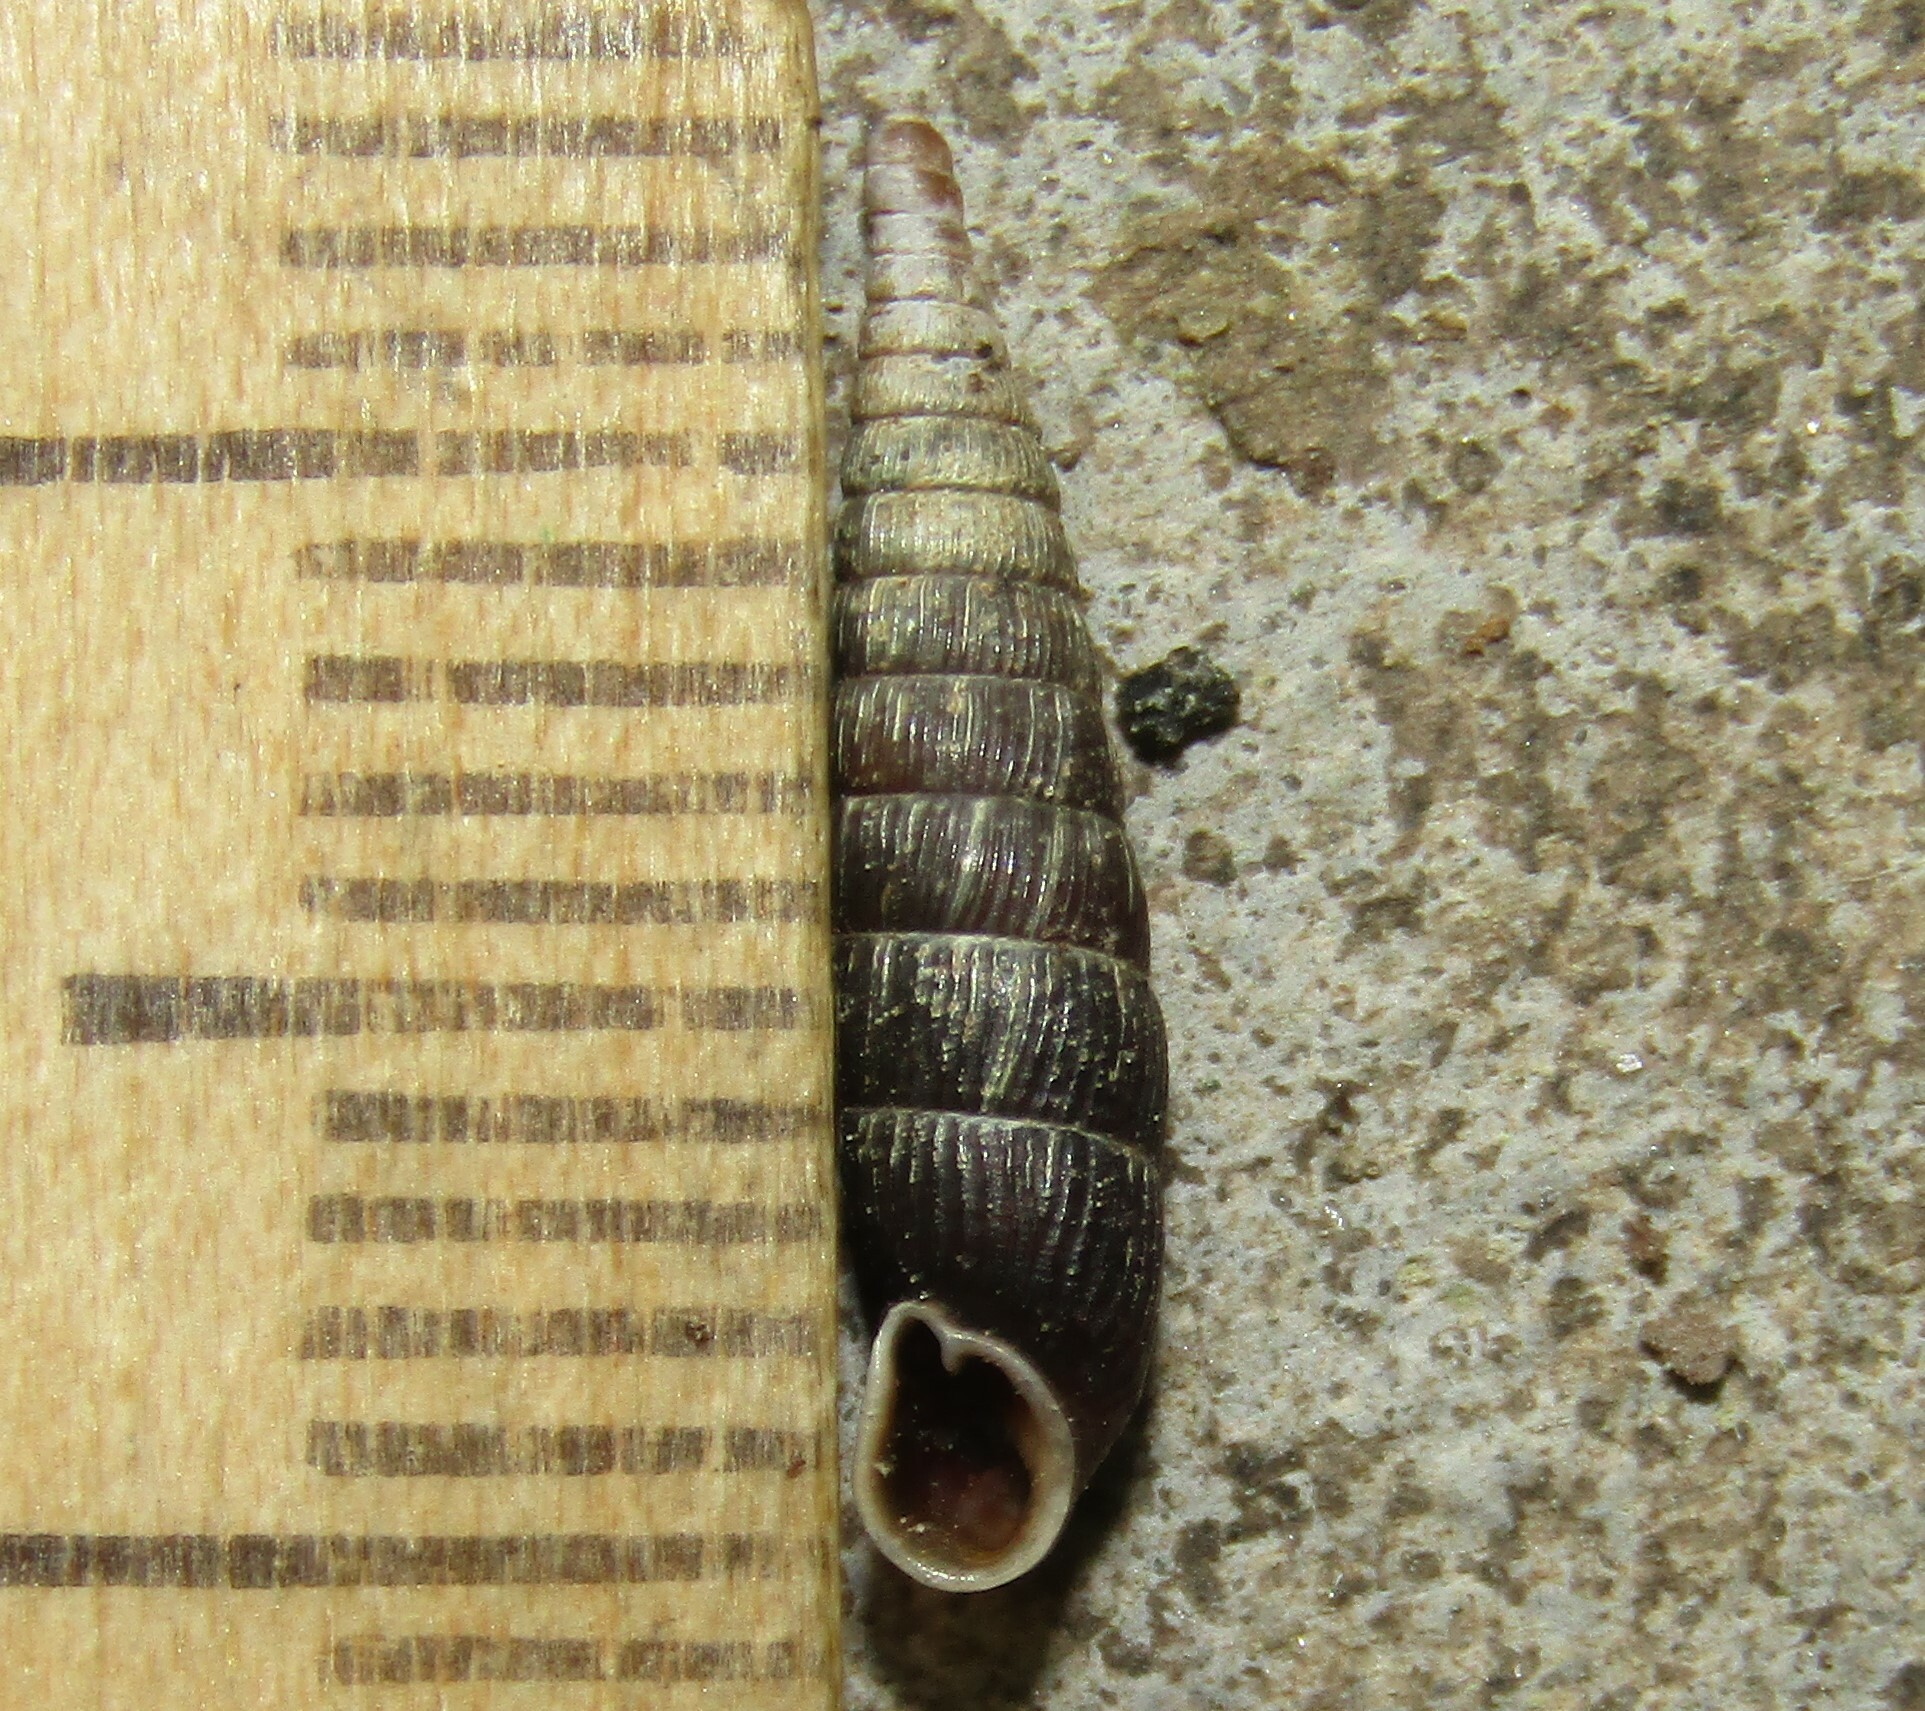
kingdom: Animalia
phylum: Mollusca
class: Gastropoda
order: Stylommatophora
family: Clausiliidae
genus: Clausilia
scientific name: Clausilia pumila
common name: Clublike door snail
